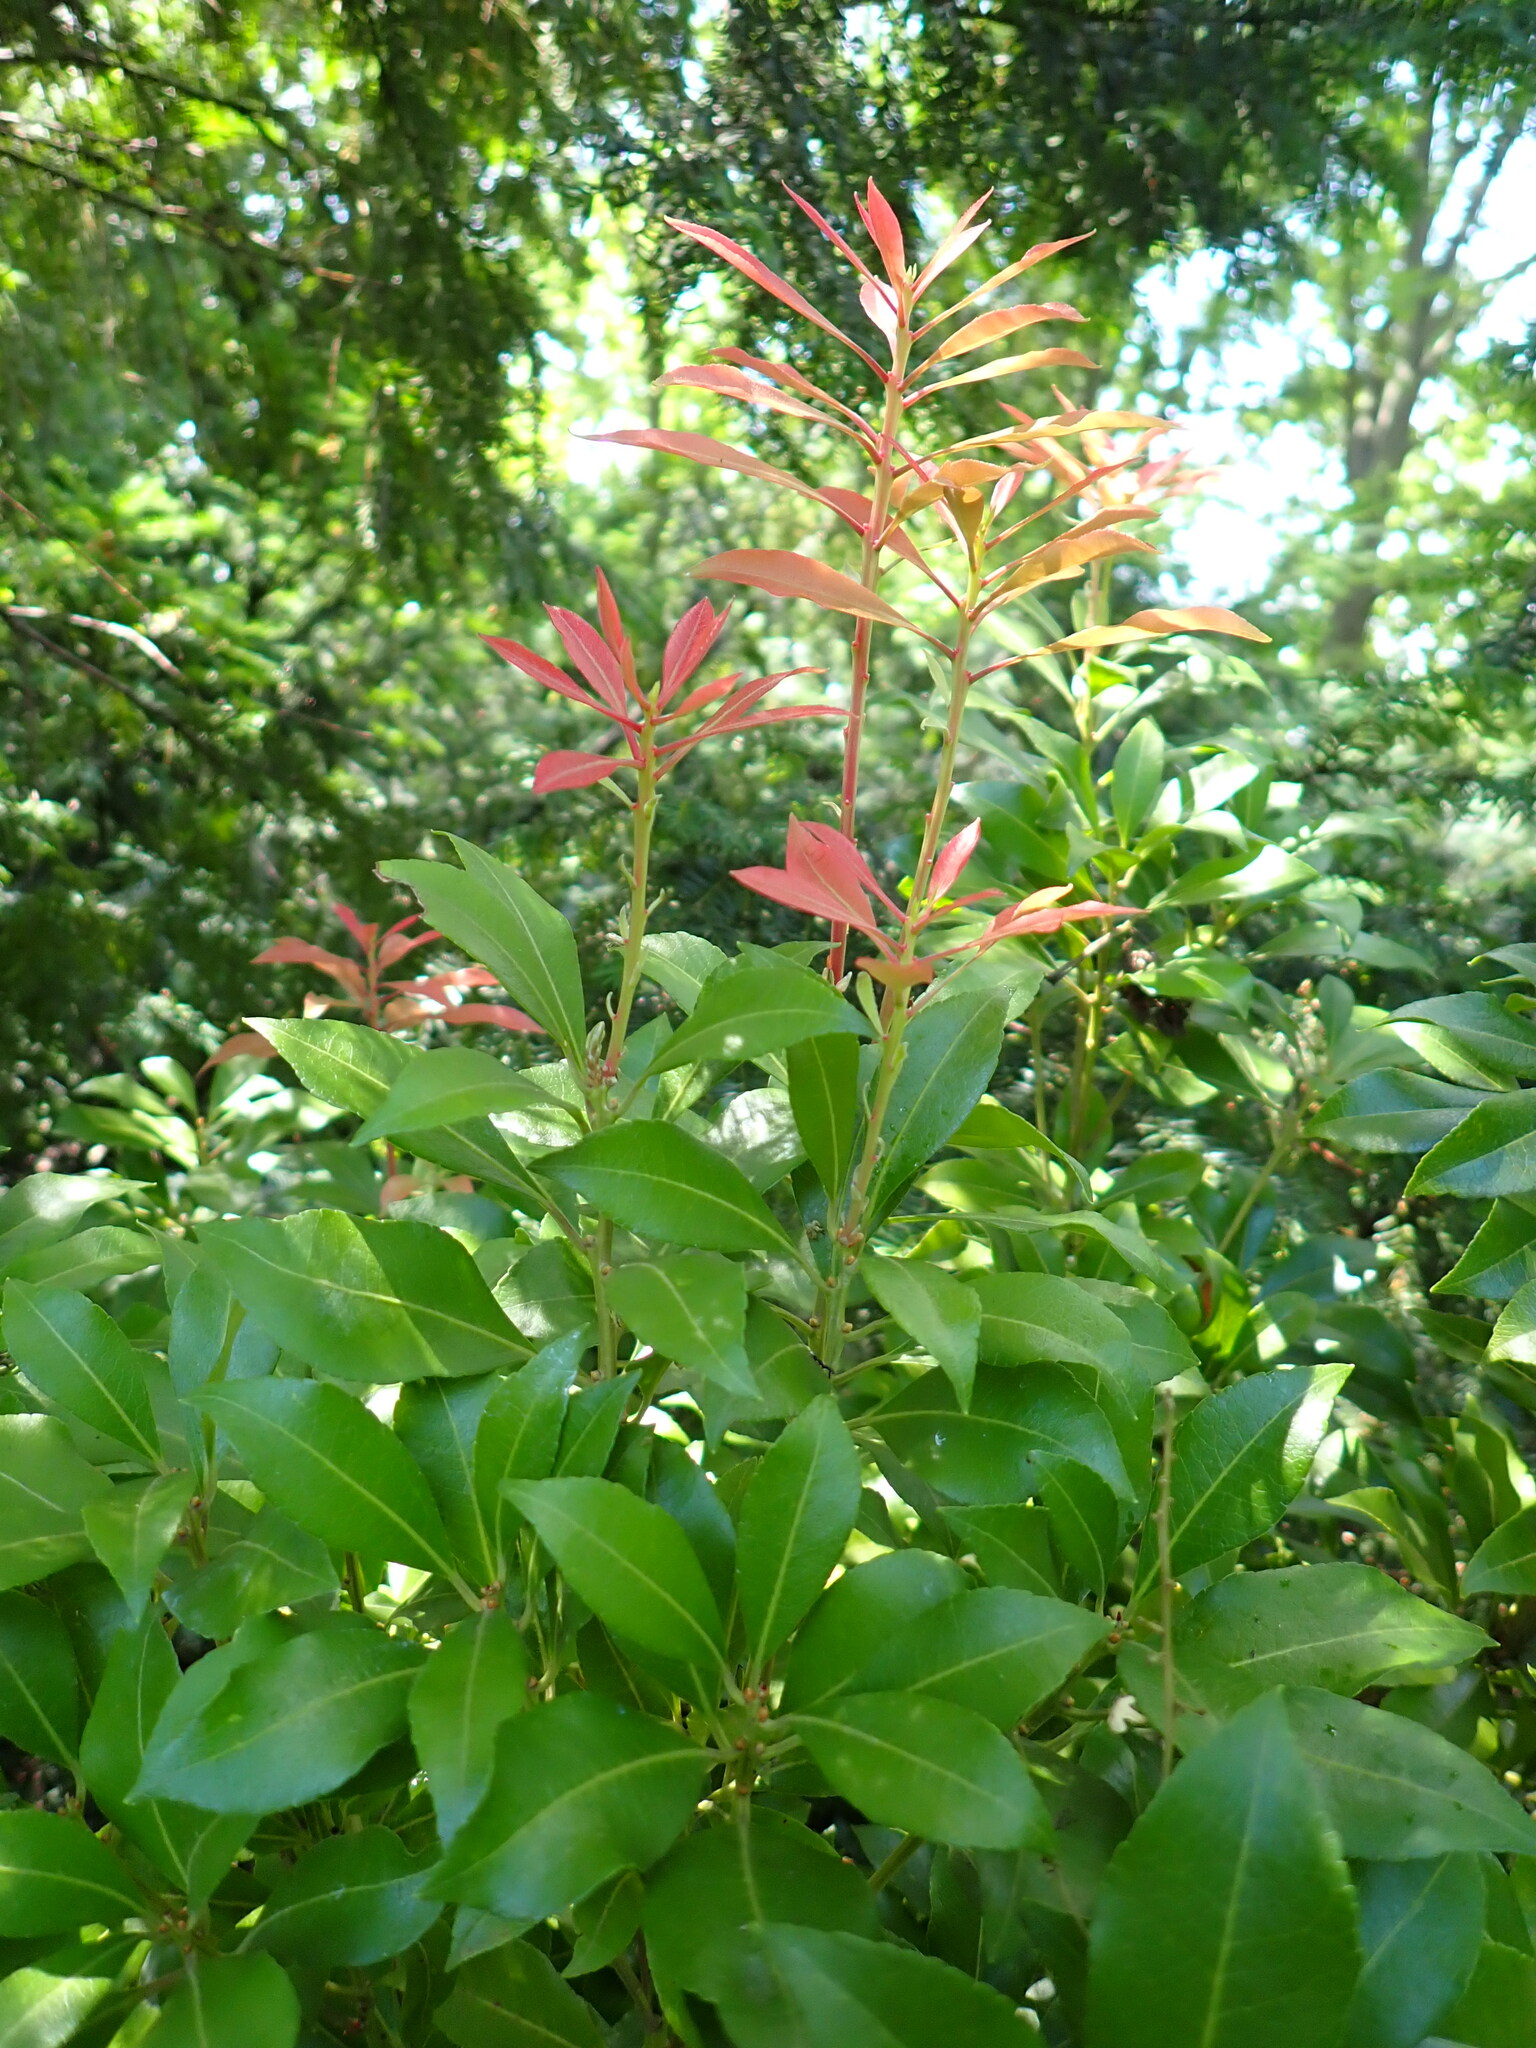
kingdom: Animalia
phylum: Arthropoda
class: Insecta
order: Hemiptera
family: Issidae
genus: Issus
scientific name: Issus coleoptratus
